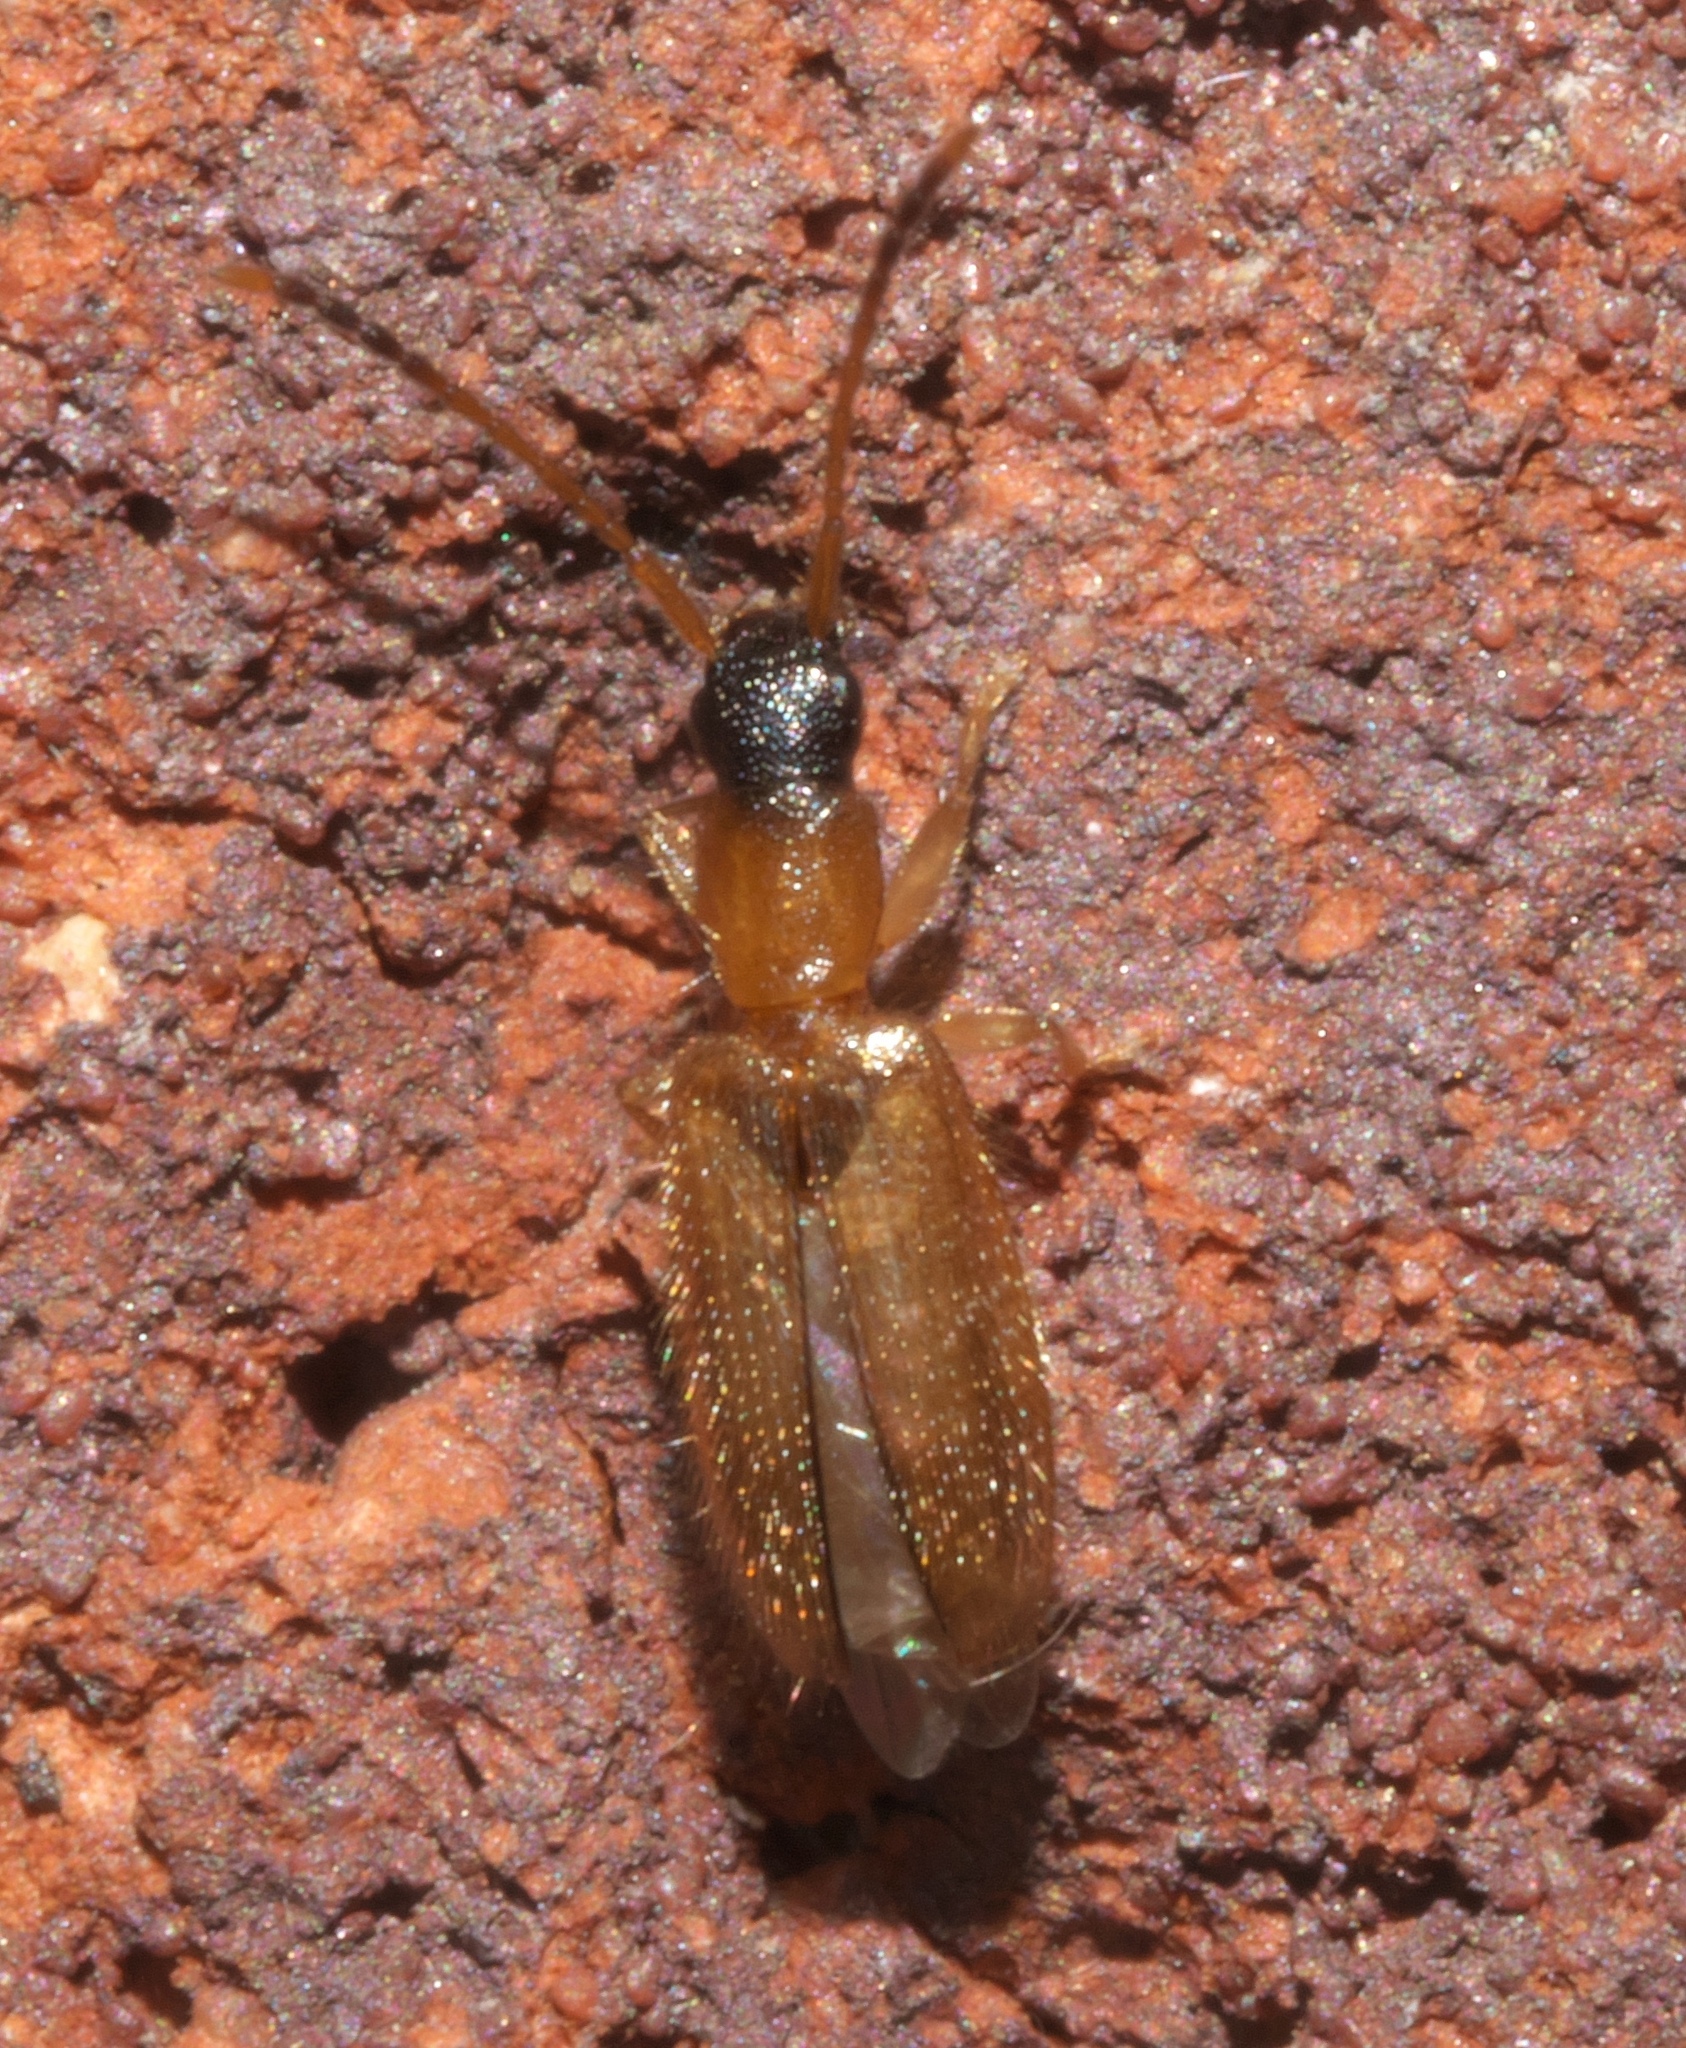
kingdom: Animalia
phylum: Arthropoda
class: Insecta
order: Coleoptera
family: Silvanidae
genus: Telephanus
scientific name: Telephanus velox
